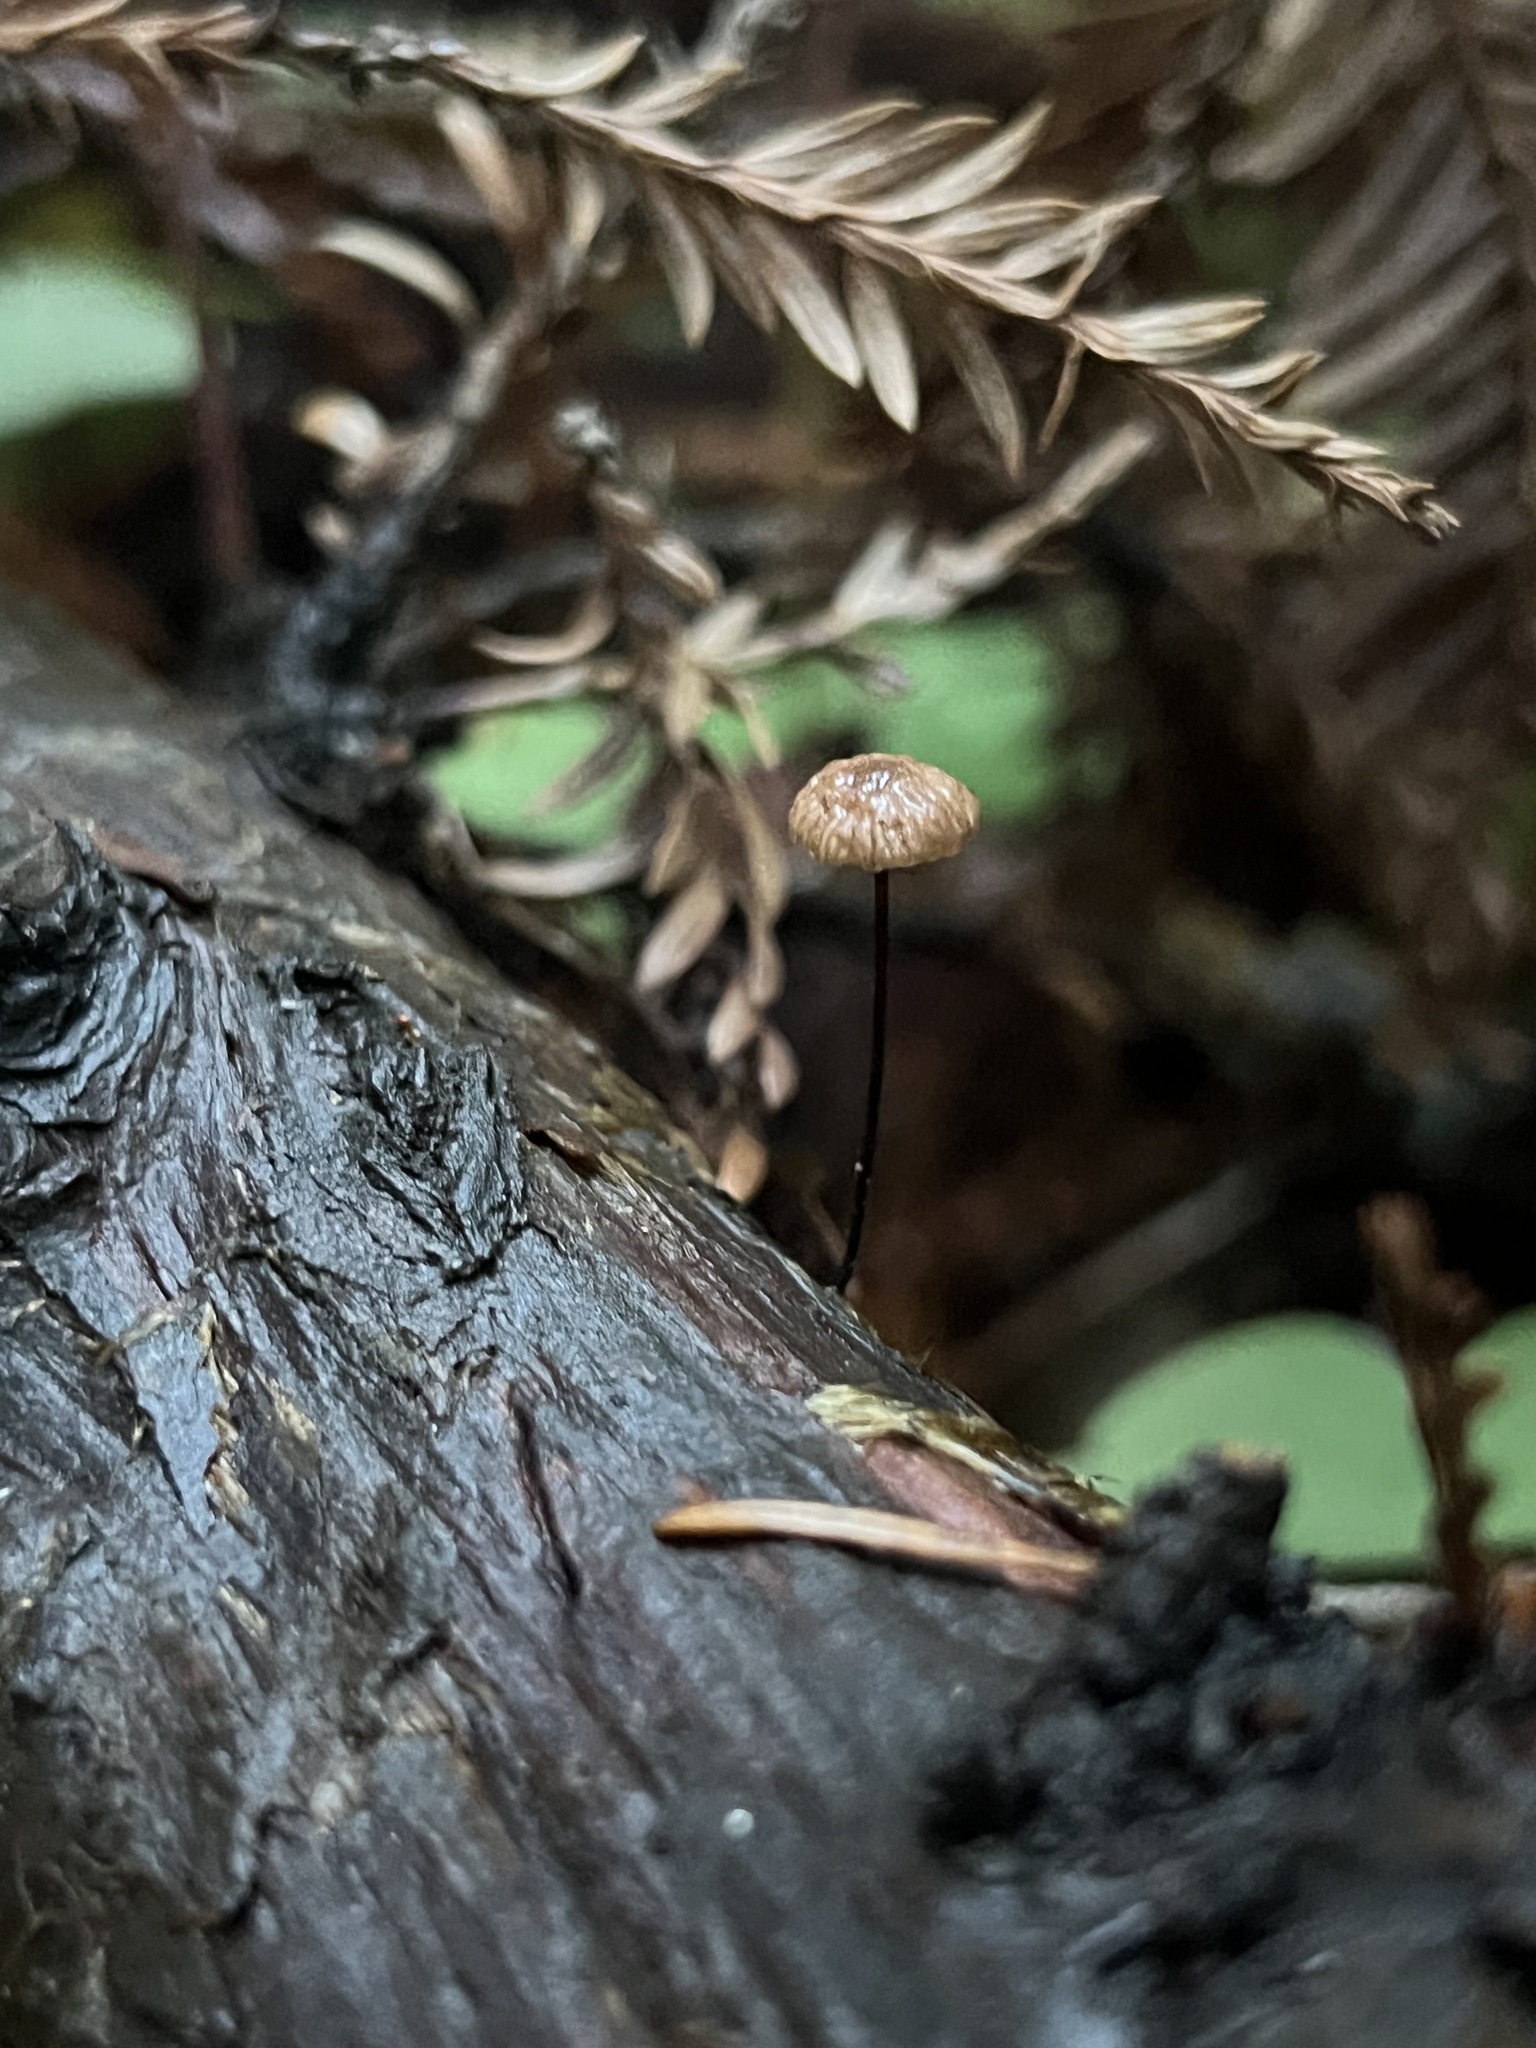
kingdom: Fungi
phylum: Basidiomycota
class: Agaricomycetes
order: Agaricales
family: Omphalotaceae
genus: Gymnopus
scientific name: Gymnopus androsaceus
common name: Horse-hair fungus
